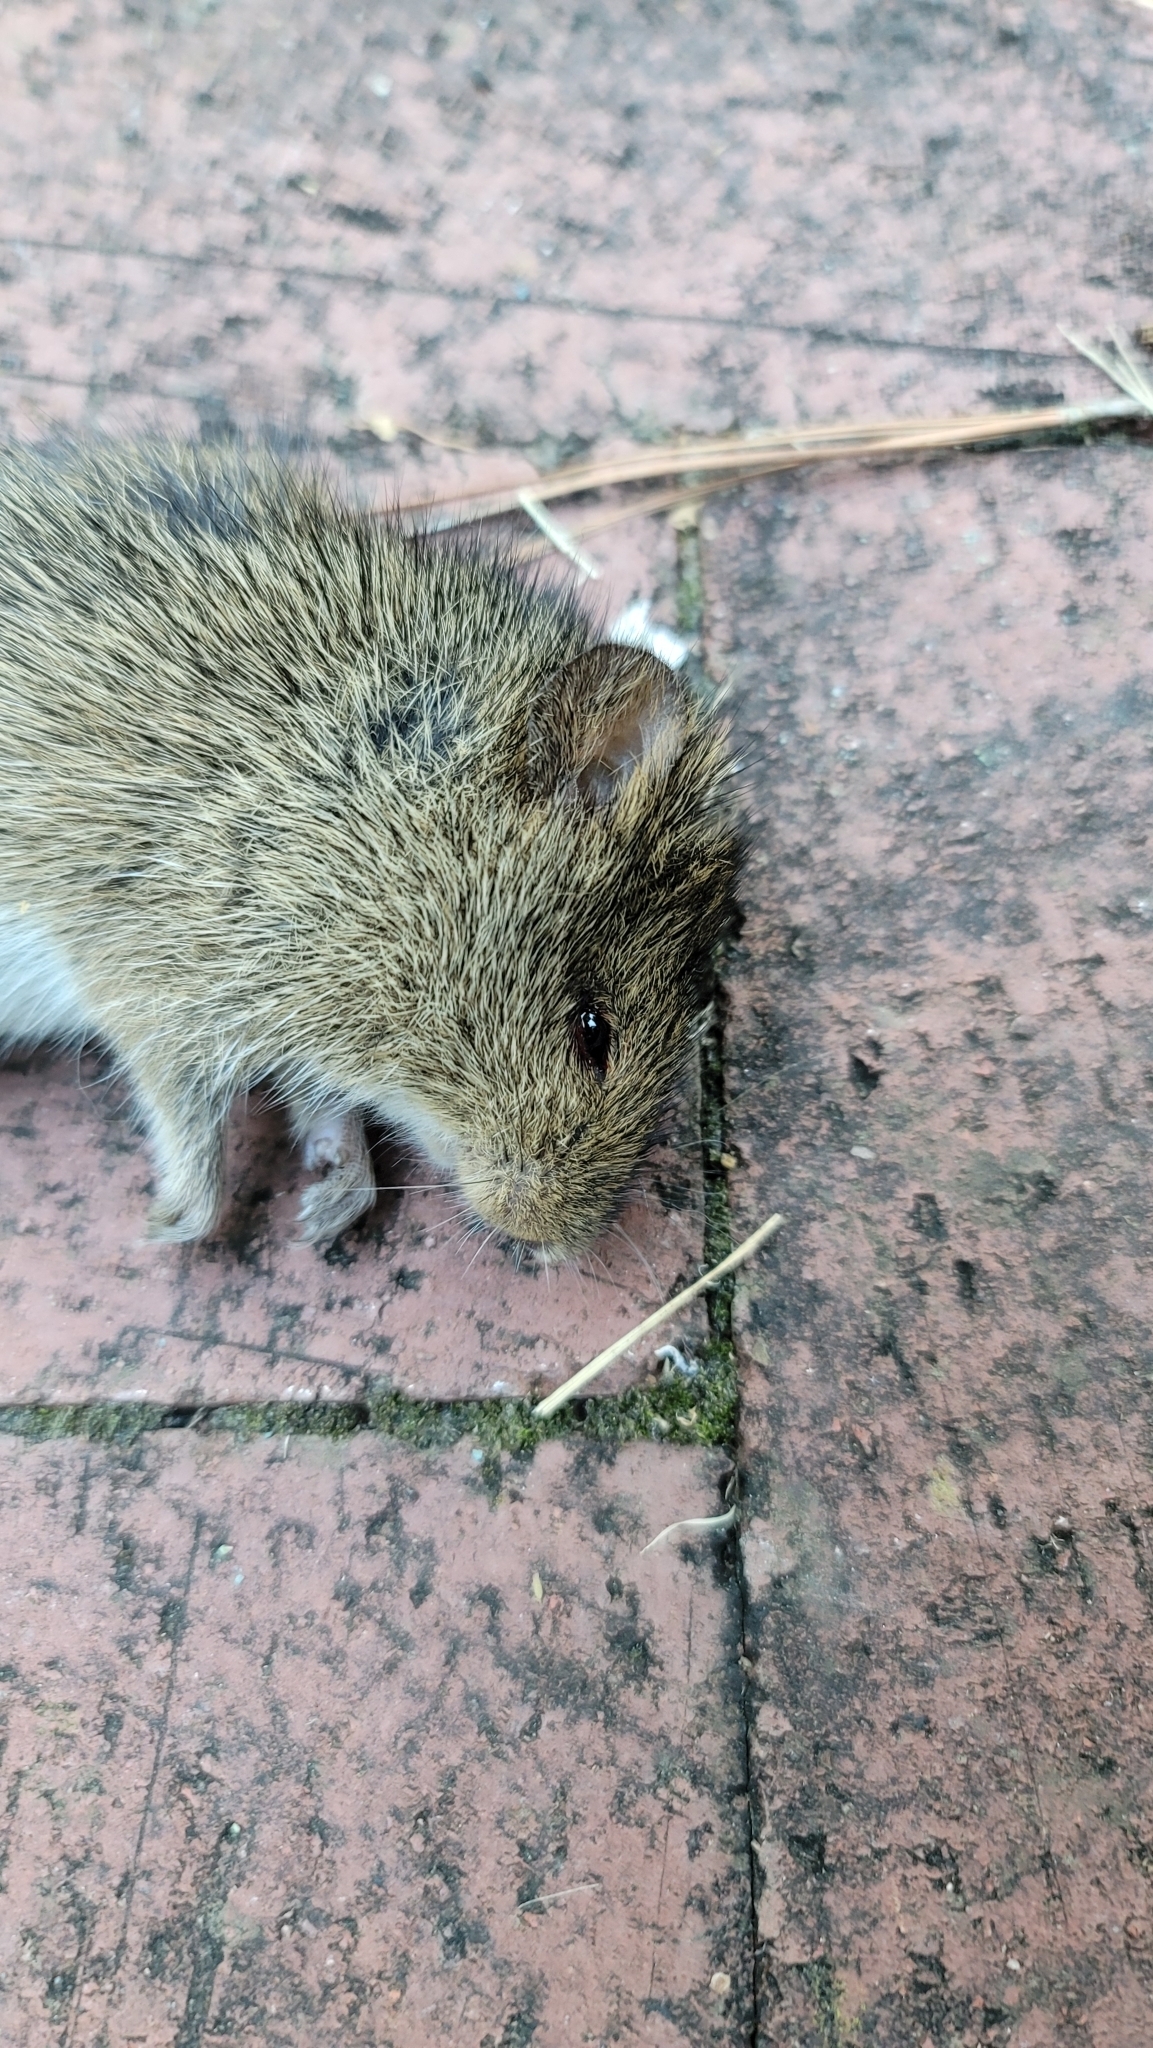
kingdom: Animalia
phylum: Chordata
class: Mammalia
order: Rodentia
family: Cricetidae
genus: Sigmodon
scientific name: Sigmodon hispidus
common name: Hispid cotton rat
